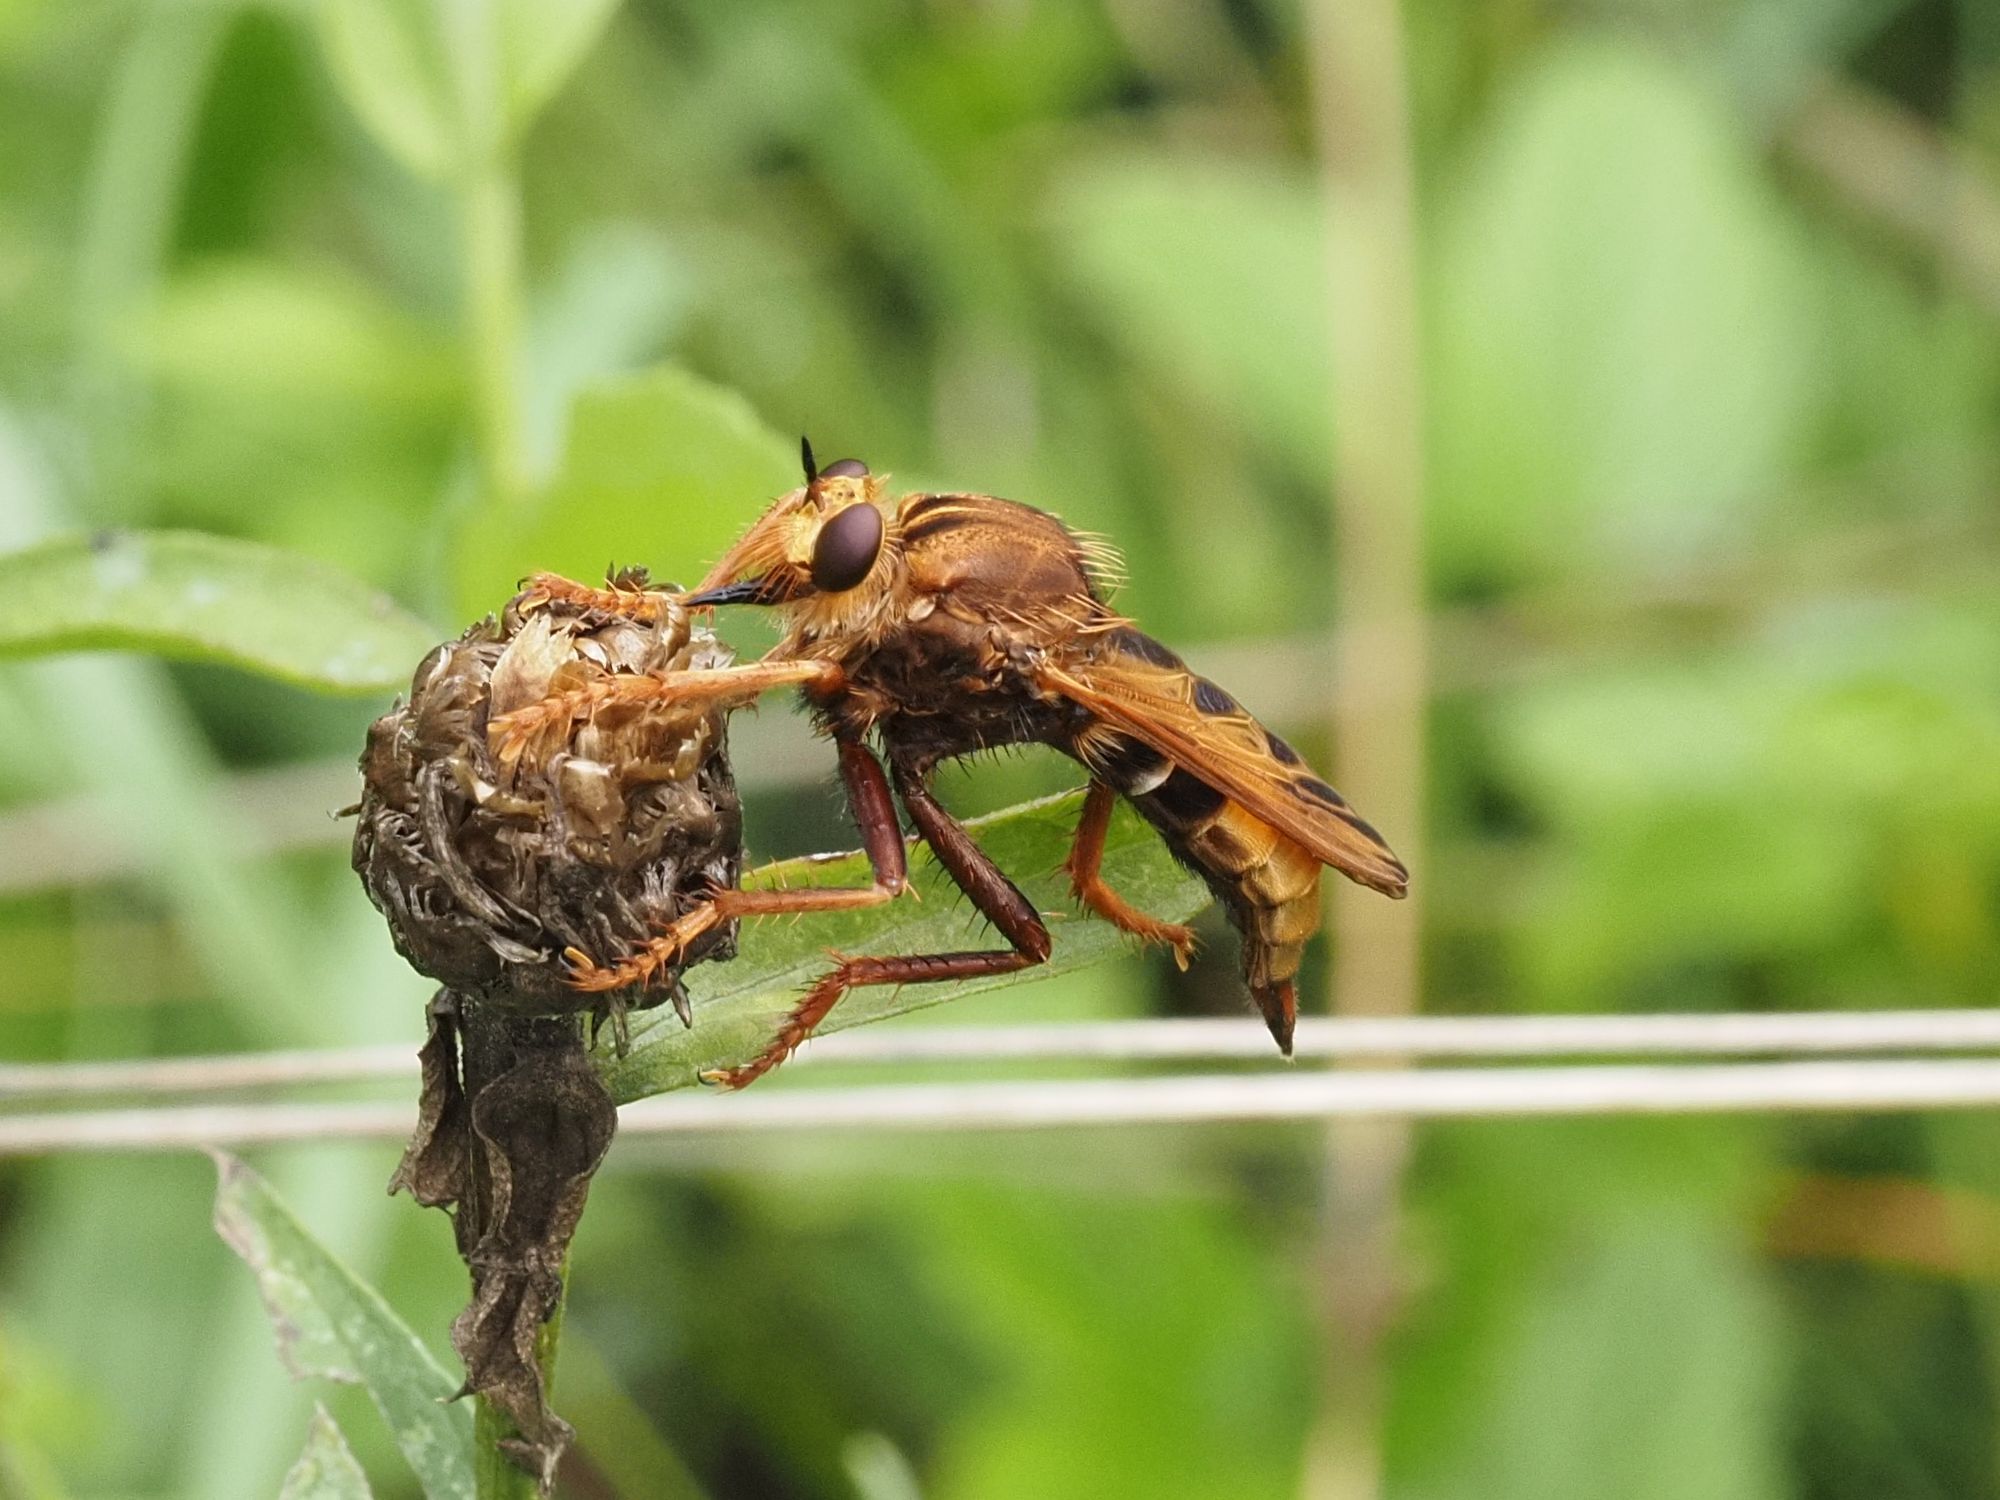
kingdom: Animalia
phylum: Arthropoda
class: Insecta
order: Diptera
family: Asilidae
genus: Asilus
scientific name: Asilus crabroniformis
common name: Hornet robberfly
